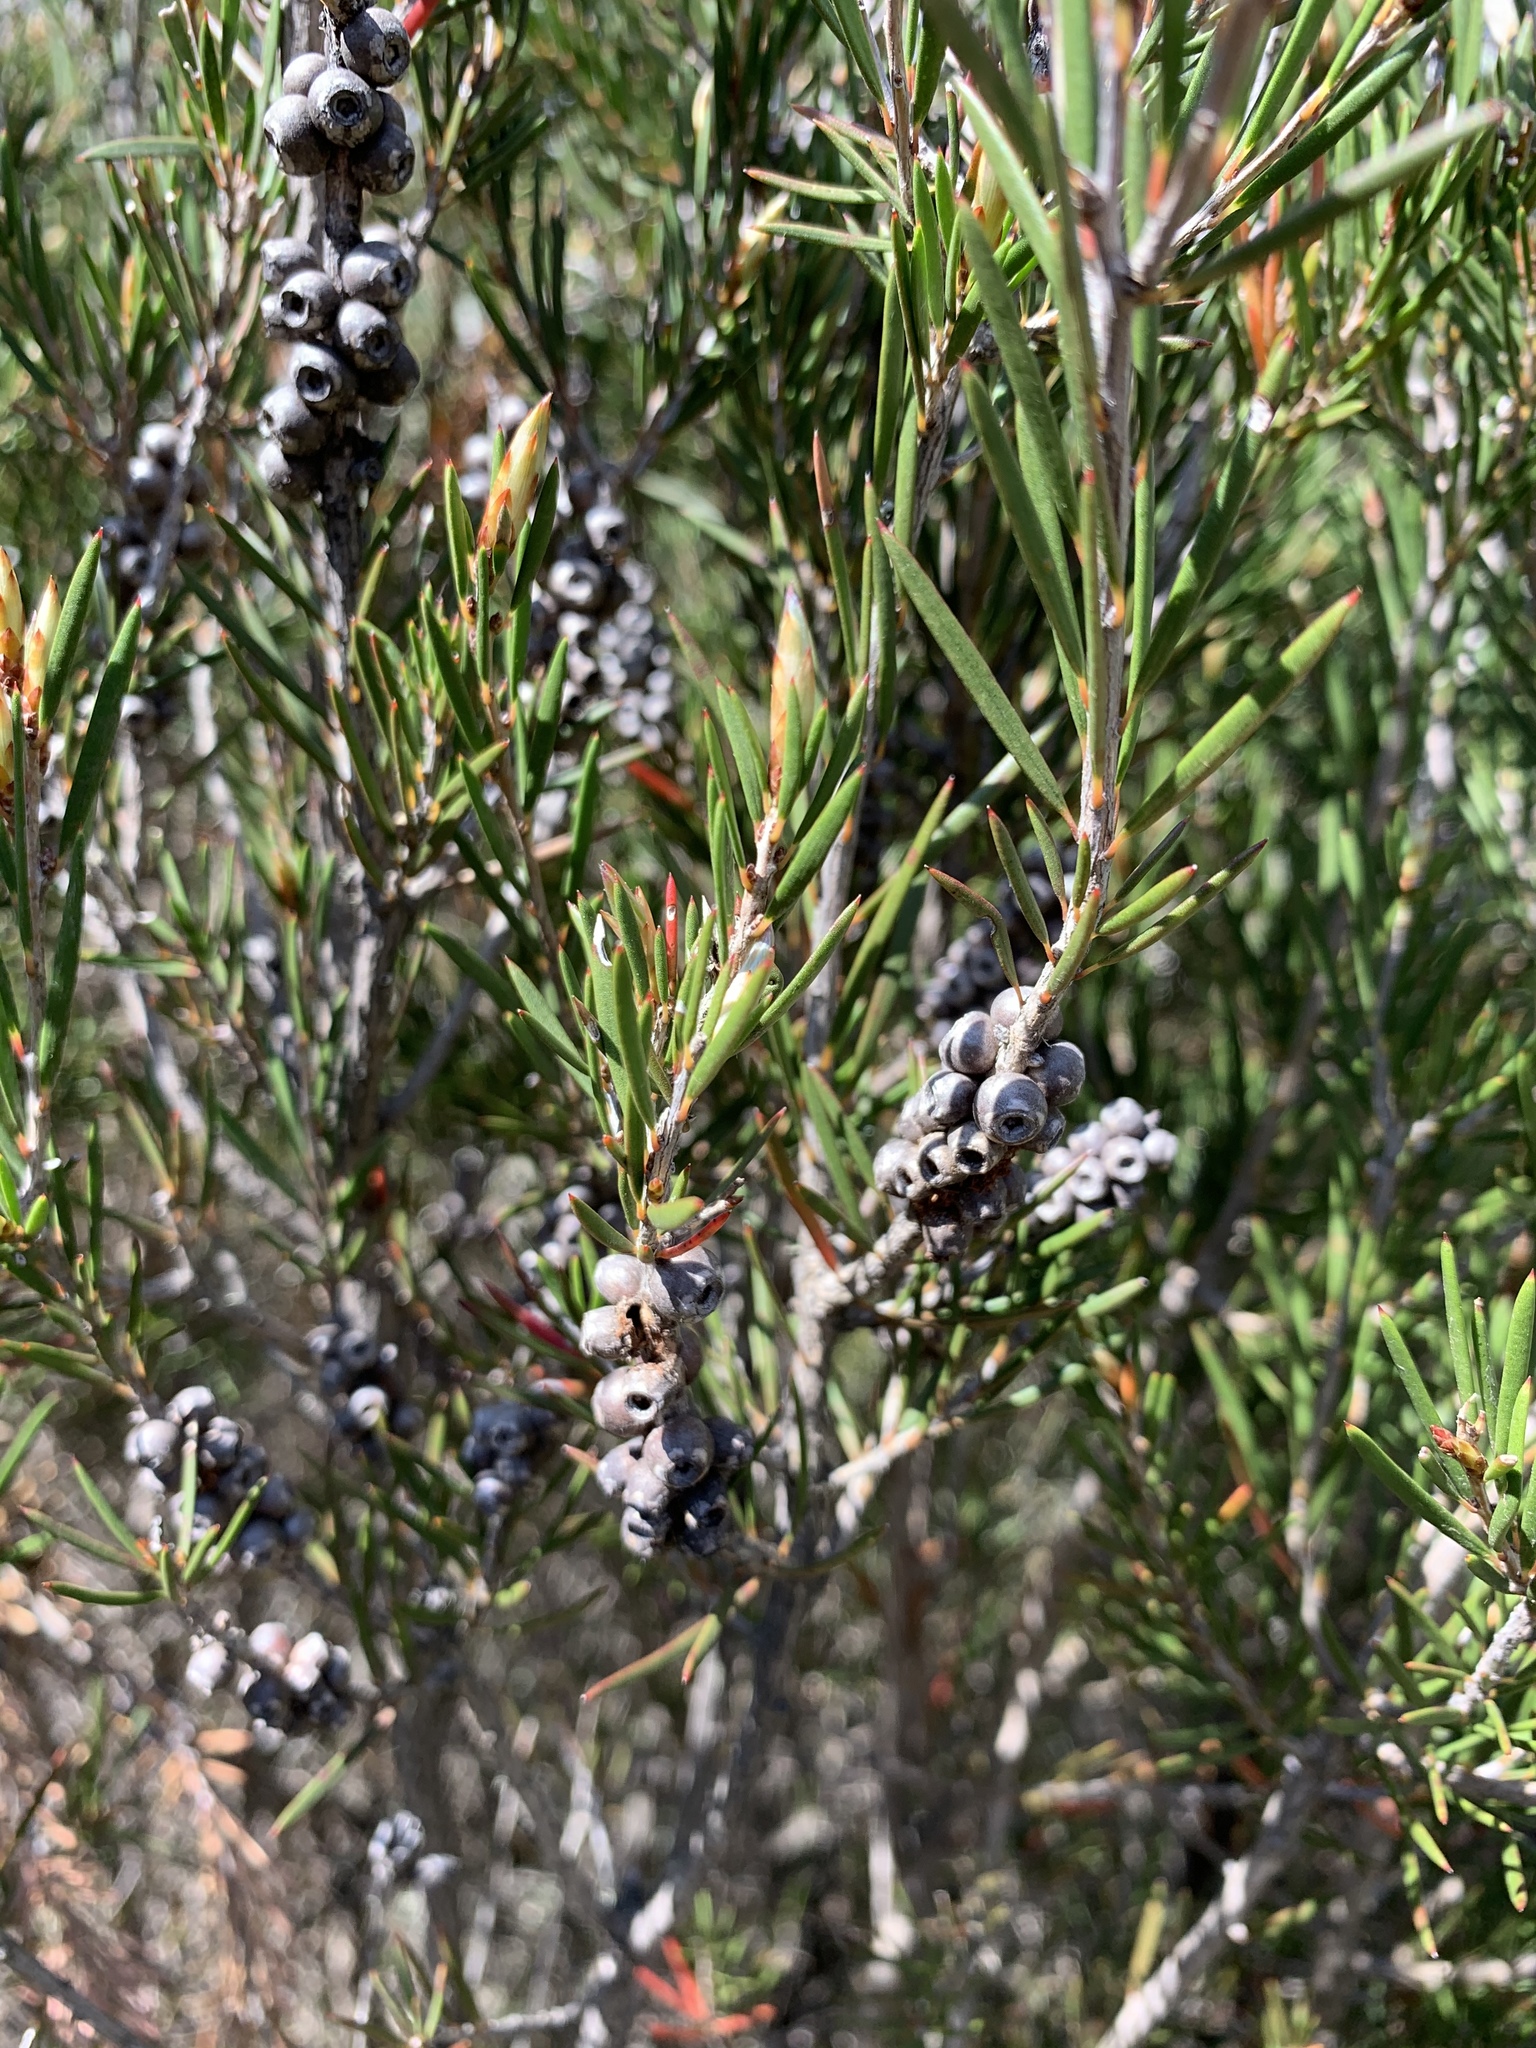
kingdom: Plantae
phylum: Tracheophyta
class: Magnoliopsida
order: Myrtales
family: Myrtaceae
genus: Callistemon
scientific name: Callistemon pityoides
